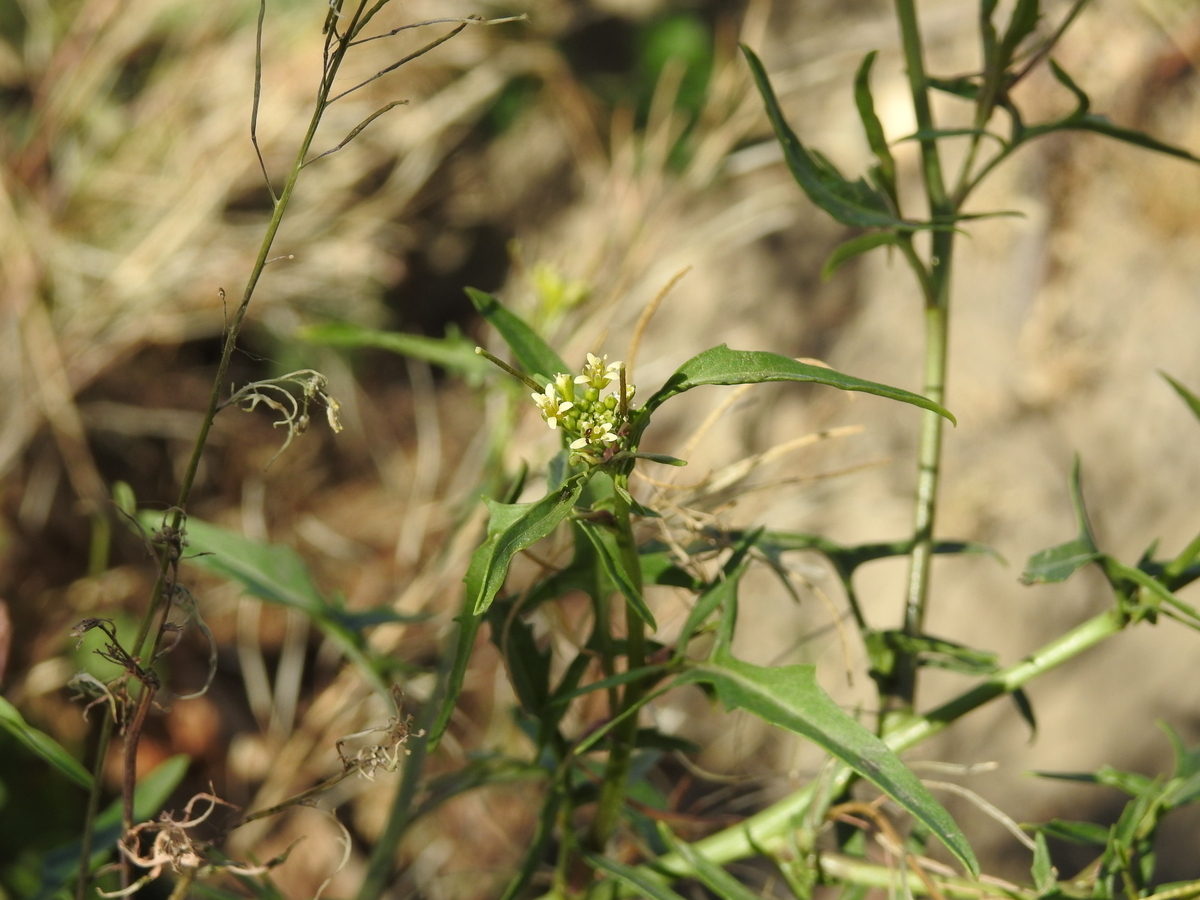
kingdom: Plantae
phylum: Tracheophyta
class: Magnoliopsida
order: Brassicales
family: Brassicaceae
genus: Sisymbrium
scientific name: Sisymbrium irio
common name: London rocket
